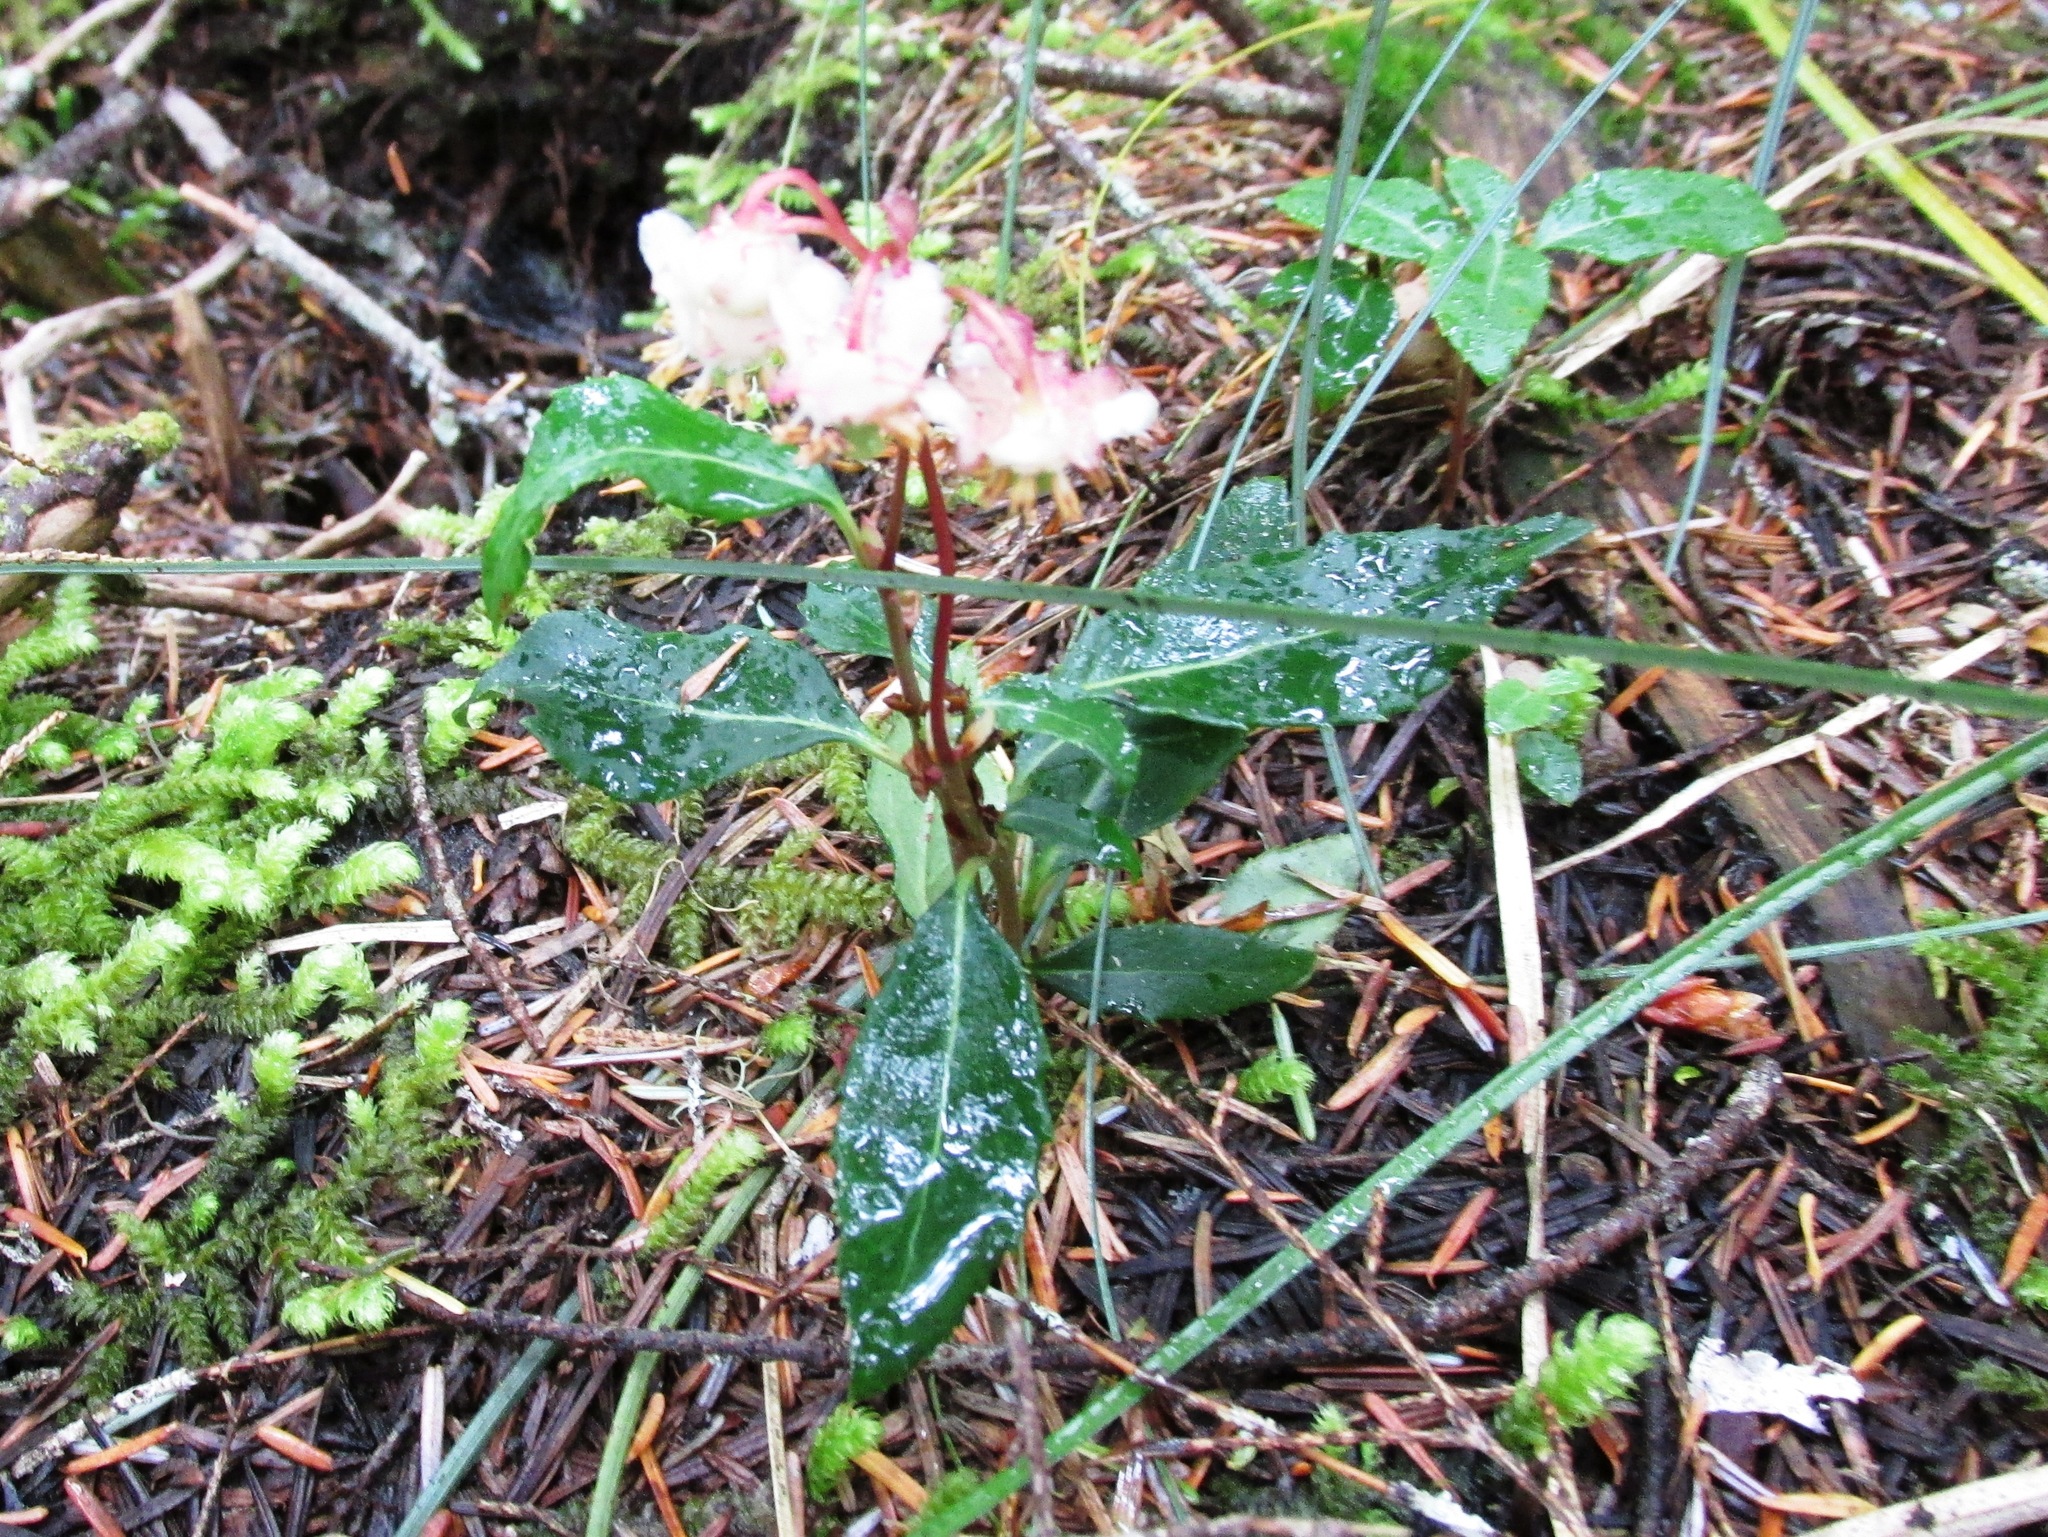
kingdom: Plantae
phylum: Tracheophyta
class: Magnoliopsida
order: Ericales
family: Ericaceae
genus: Chimaphila
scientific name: Chimaphila menziesii
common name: Menzies' pipsissewa
